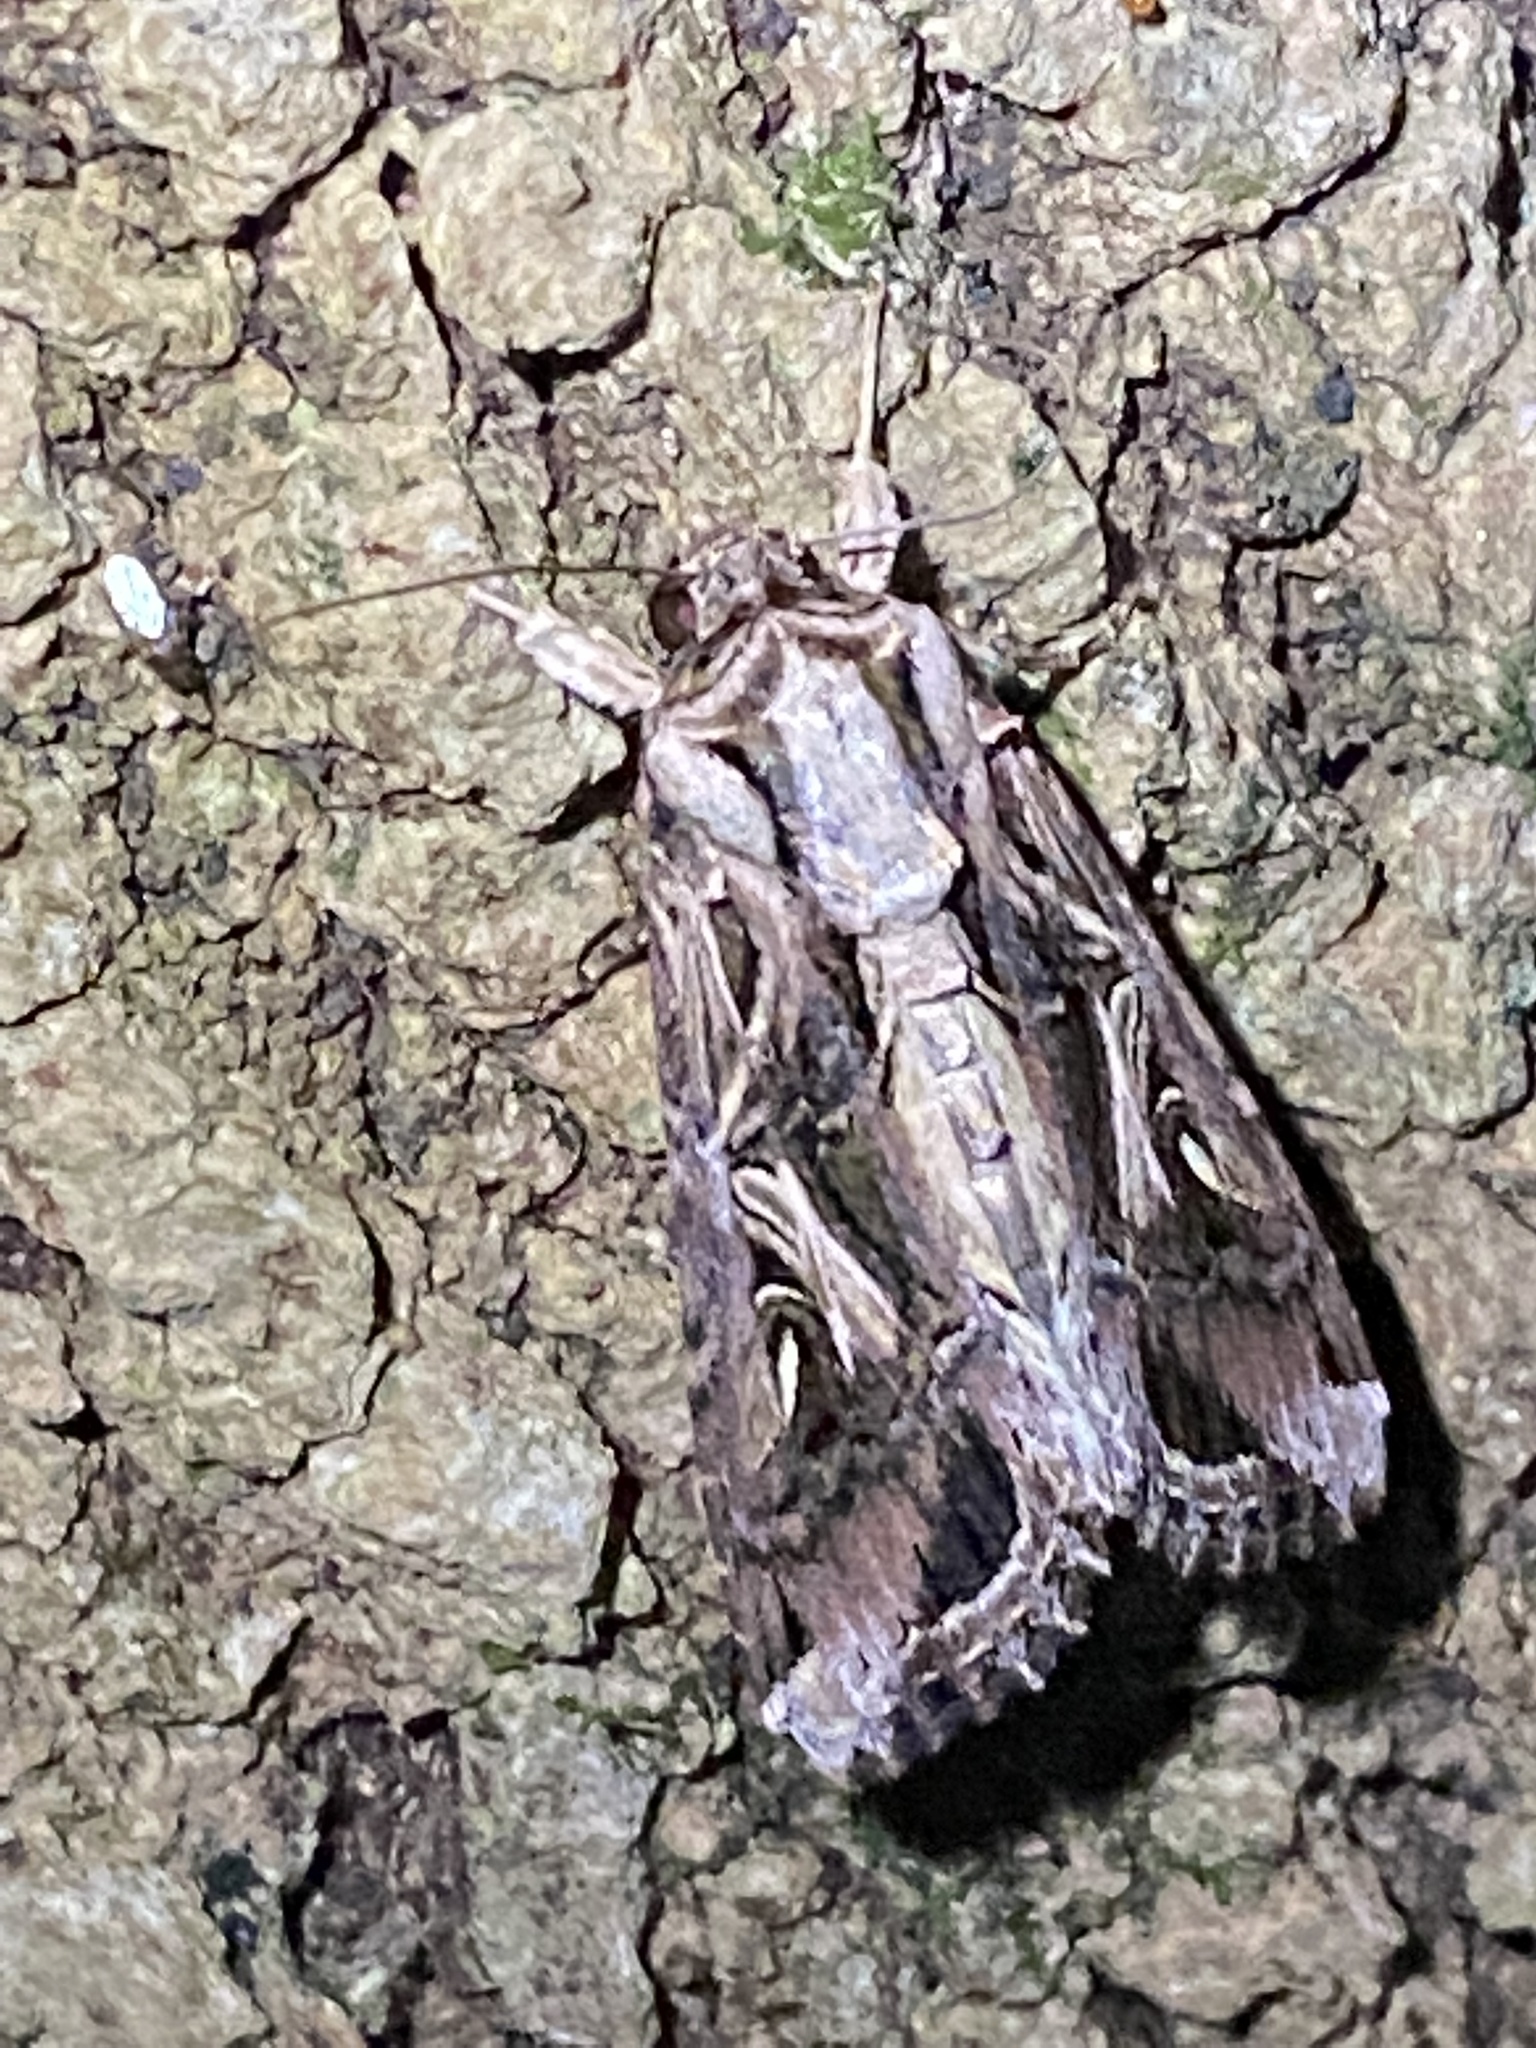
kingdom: Animalia
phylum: Arthropoda
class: Insecta
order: Lepidoptera
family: Noctuidae
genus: Spodoptera
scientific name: Spodoptera dolichos
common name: Sweetpotato armyworm
